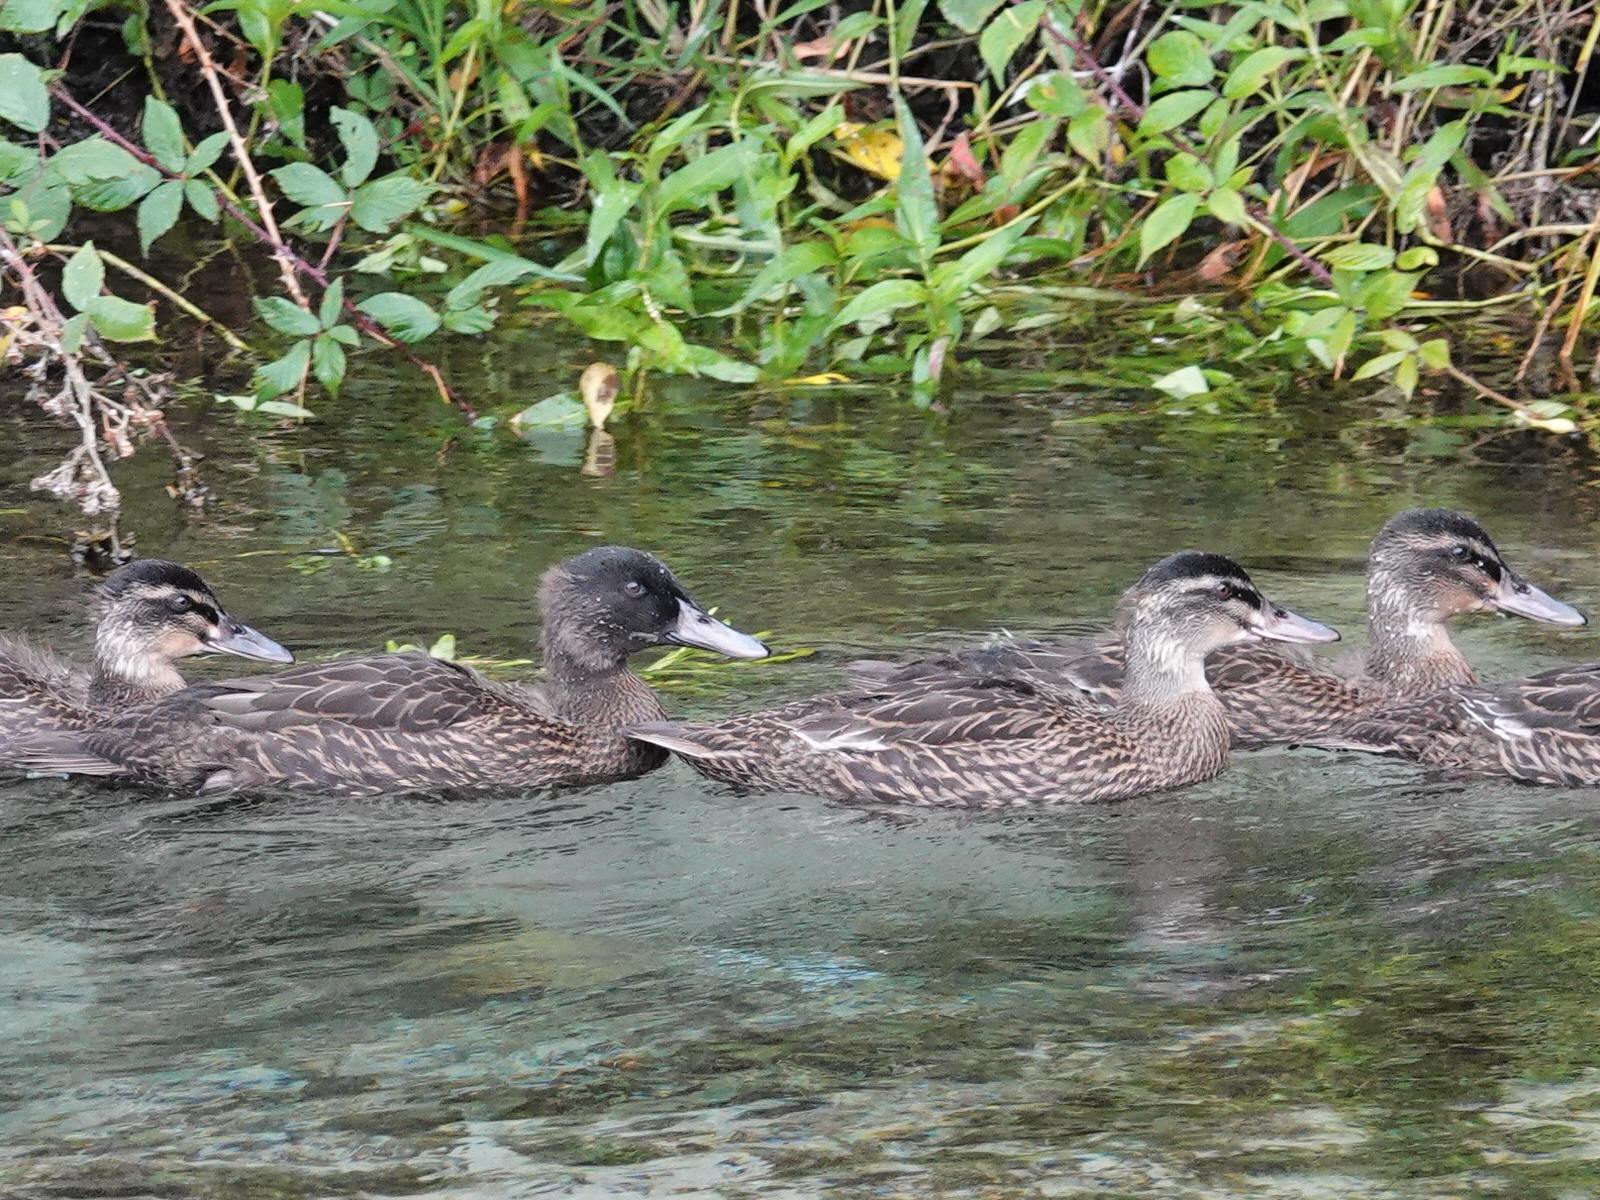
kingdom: Animalia
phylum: Chordata
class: Aves
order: Anseriformes
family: Anatidae
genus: Anas
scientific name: Anas platyrhynchos
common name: Mallard
